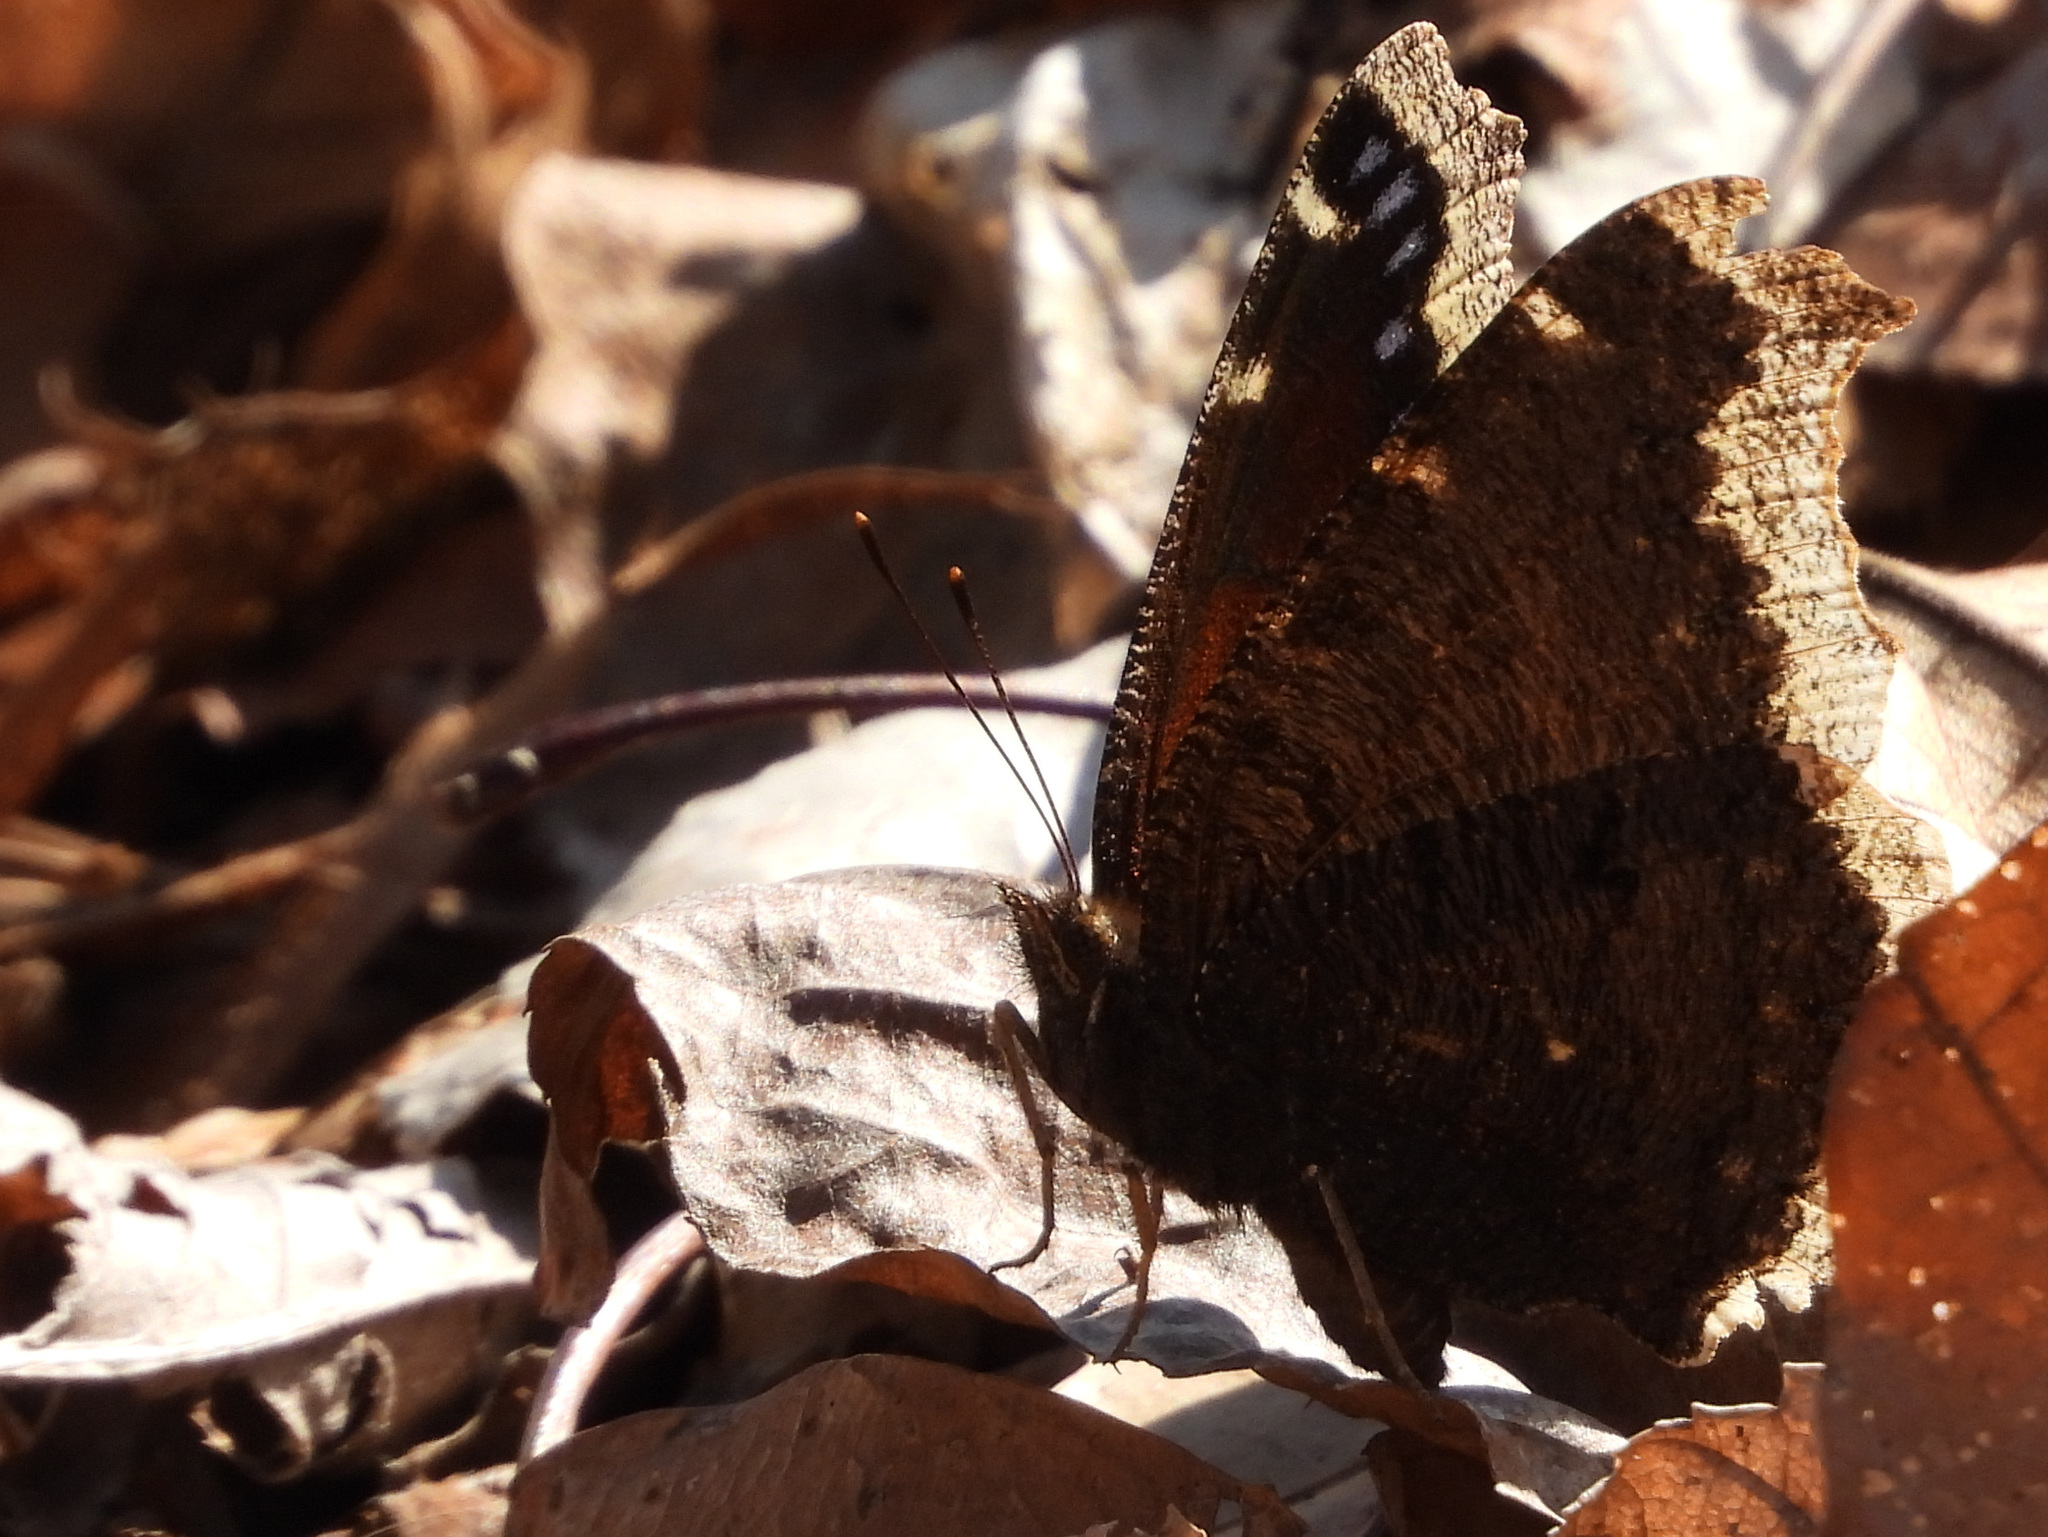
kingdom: Animalia
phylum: Arthropoda
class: Insecta
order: Lepidoptera
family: Nymphalidae
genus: Nymphalis
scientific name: Nymphalis antiopa
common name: Camberwell beauty
